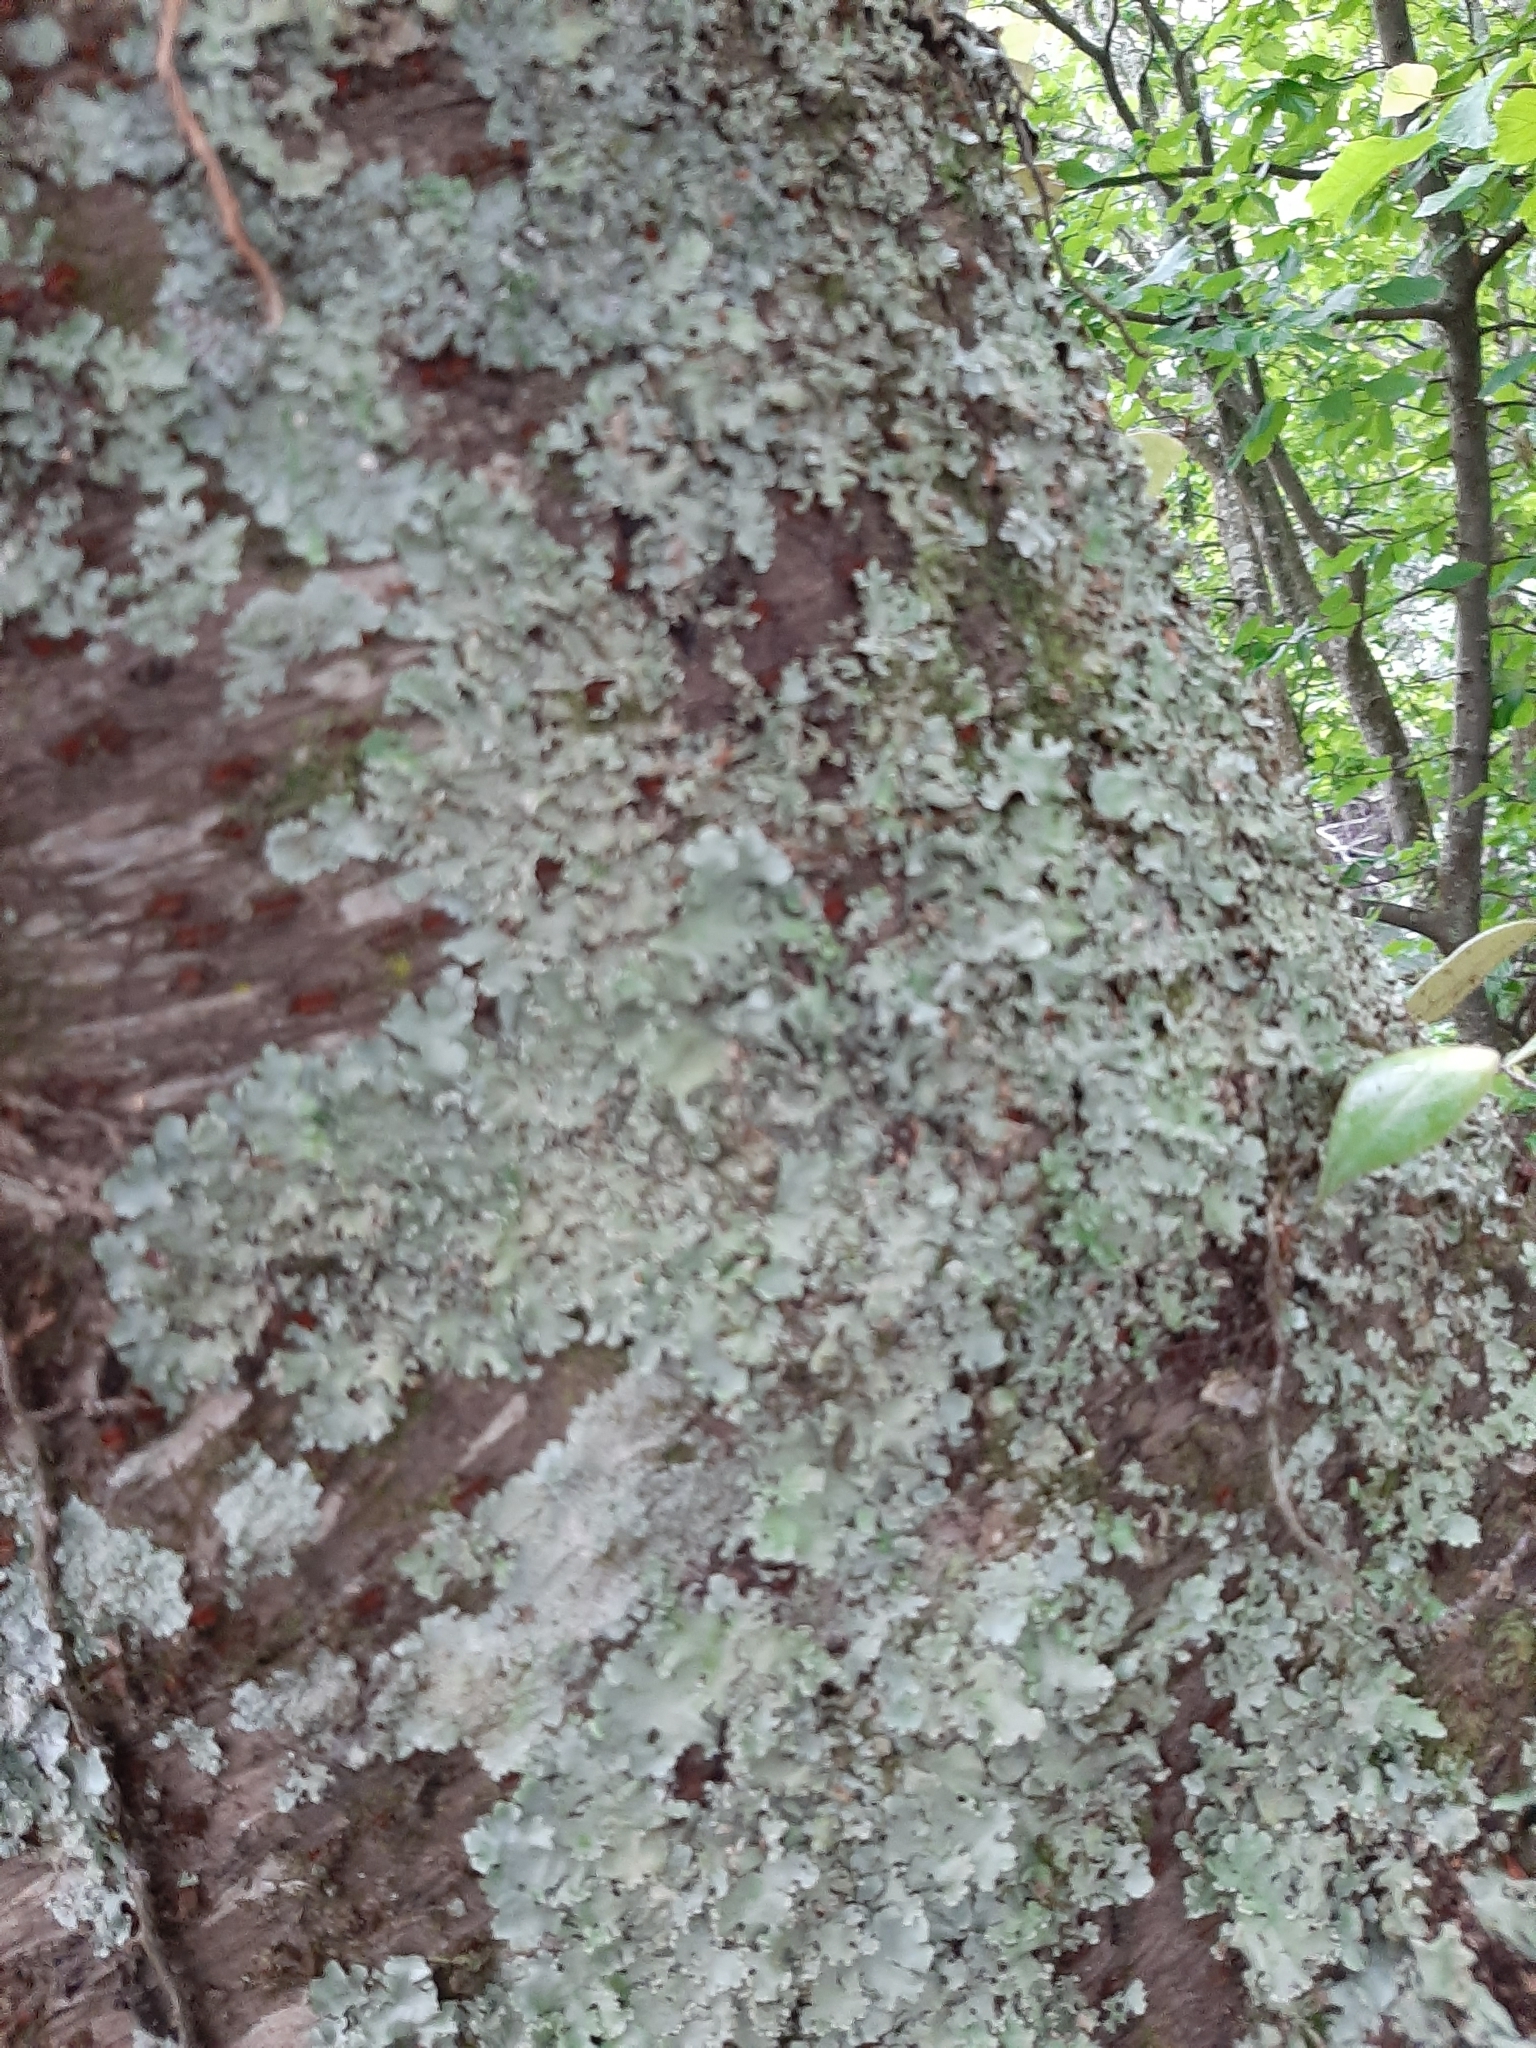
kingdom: Fungi
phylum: Ascomycota
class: Lecanoromycetes
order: Lecanorales
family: Parmeliaceae
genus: Parmotrema
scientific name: Parmotrema reticulatum
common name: Black sheet lichen
